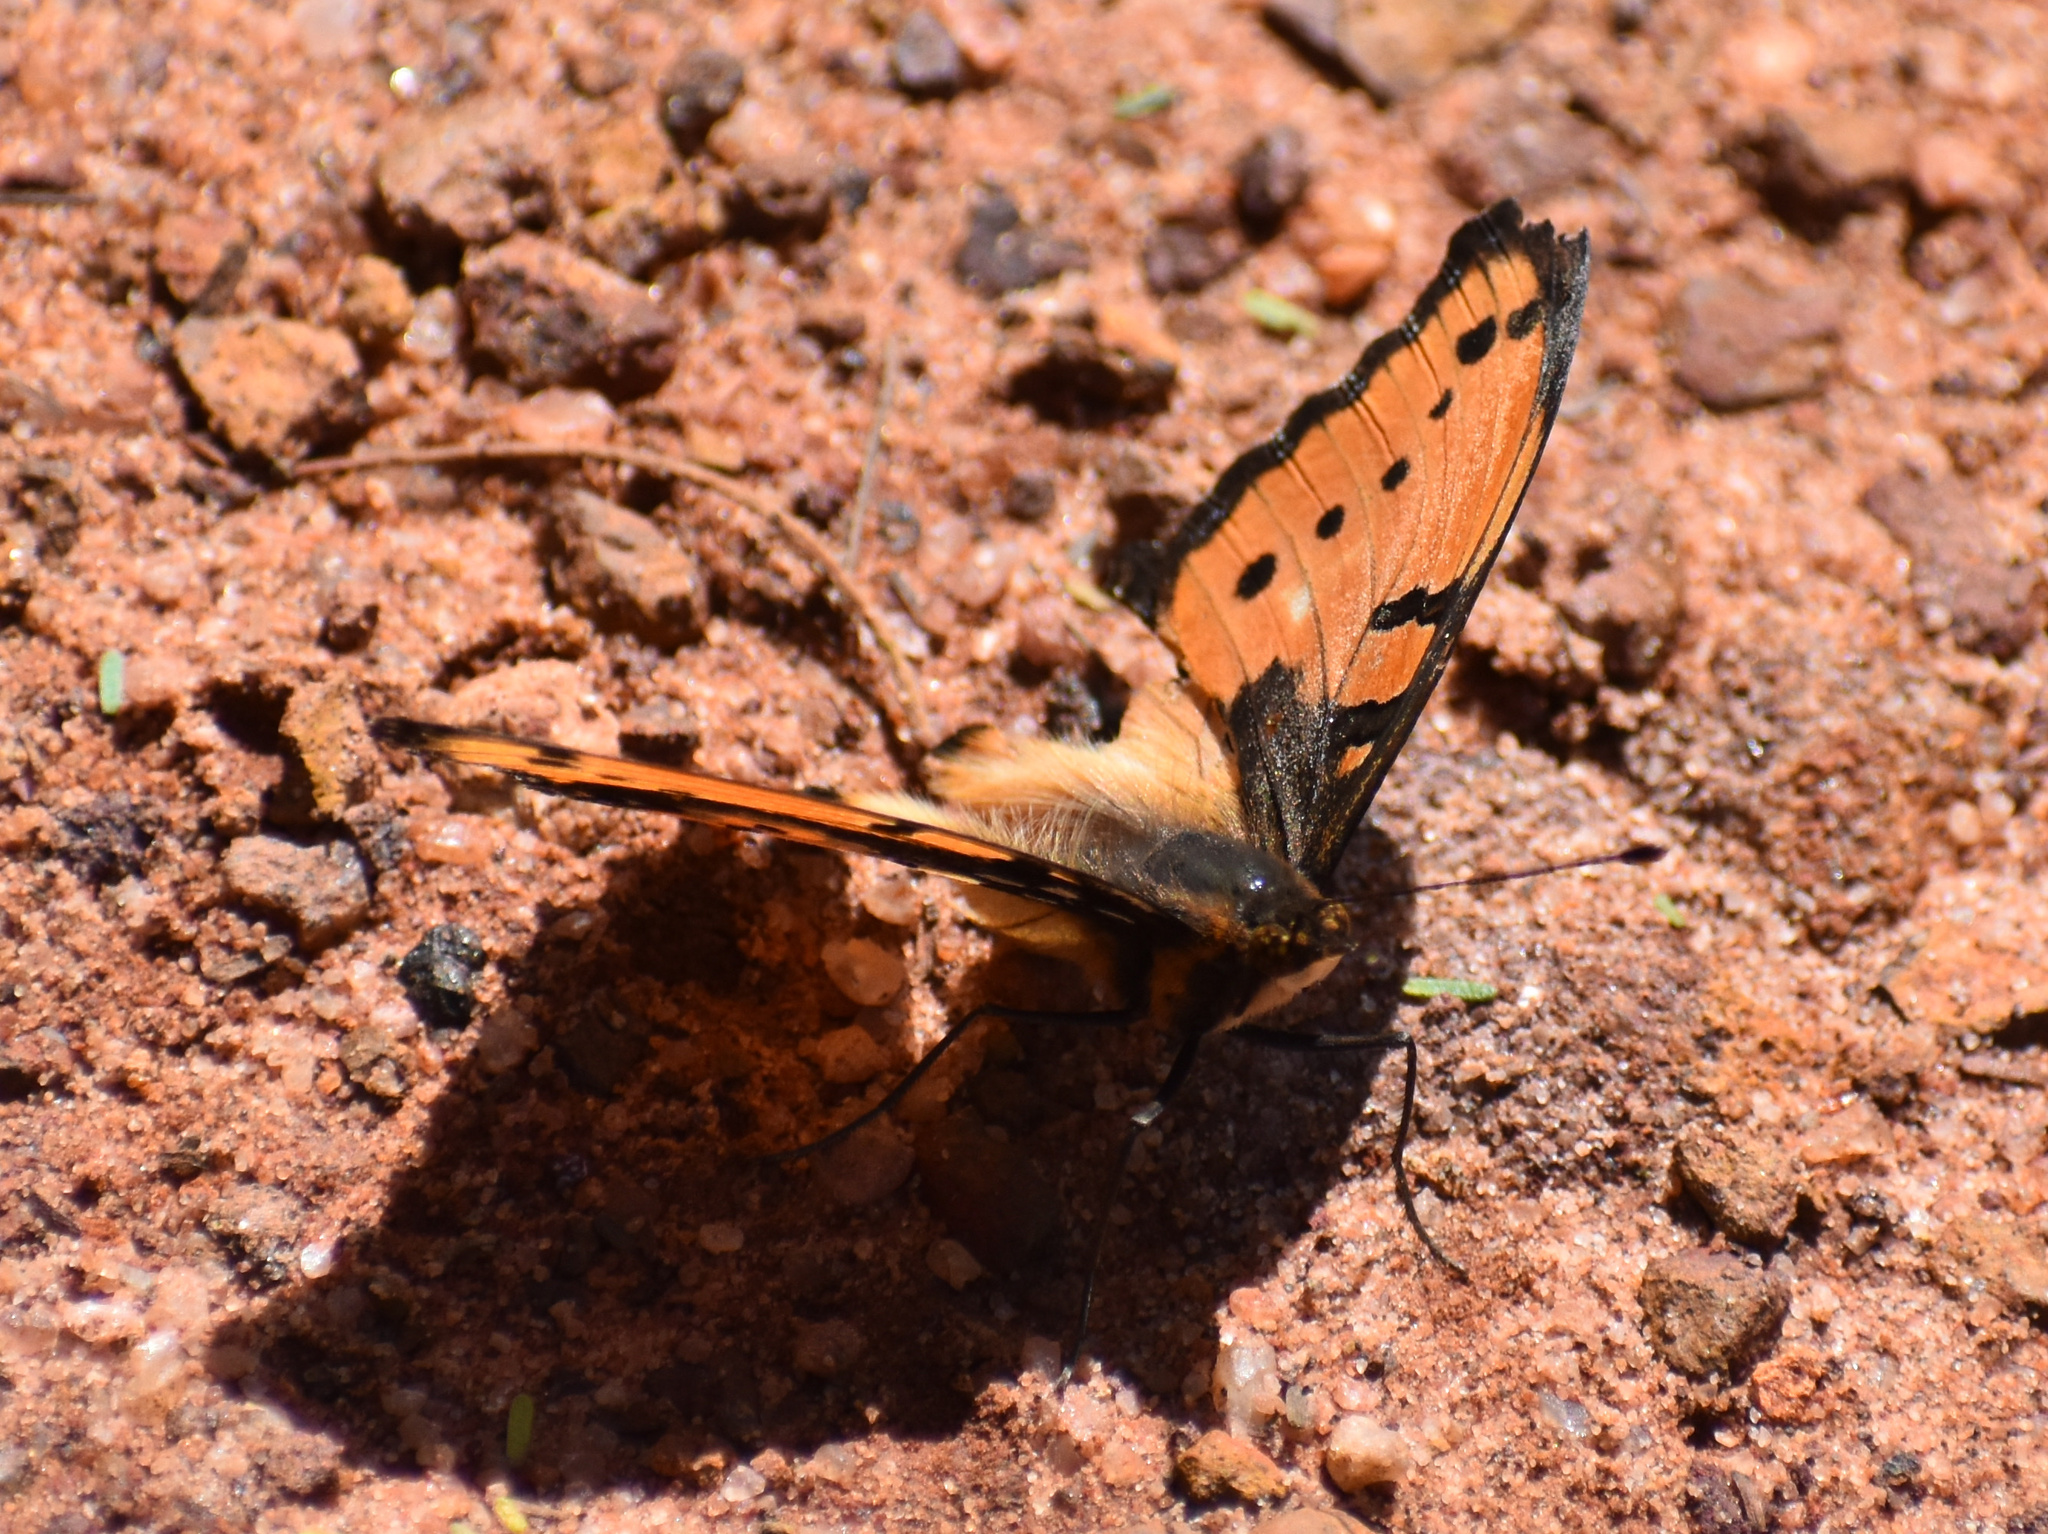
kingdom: Animalia
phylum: Arthropoda
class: Insecta
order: Lepidoptera
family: Nymphalidae
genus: Precis
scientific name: Precis octavia
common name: Gaudy commodore
